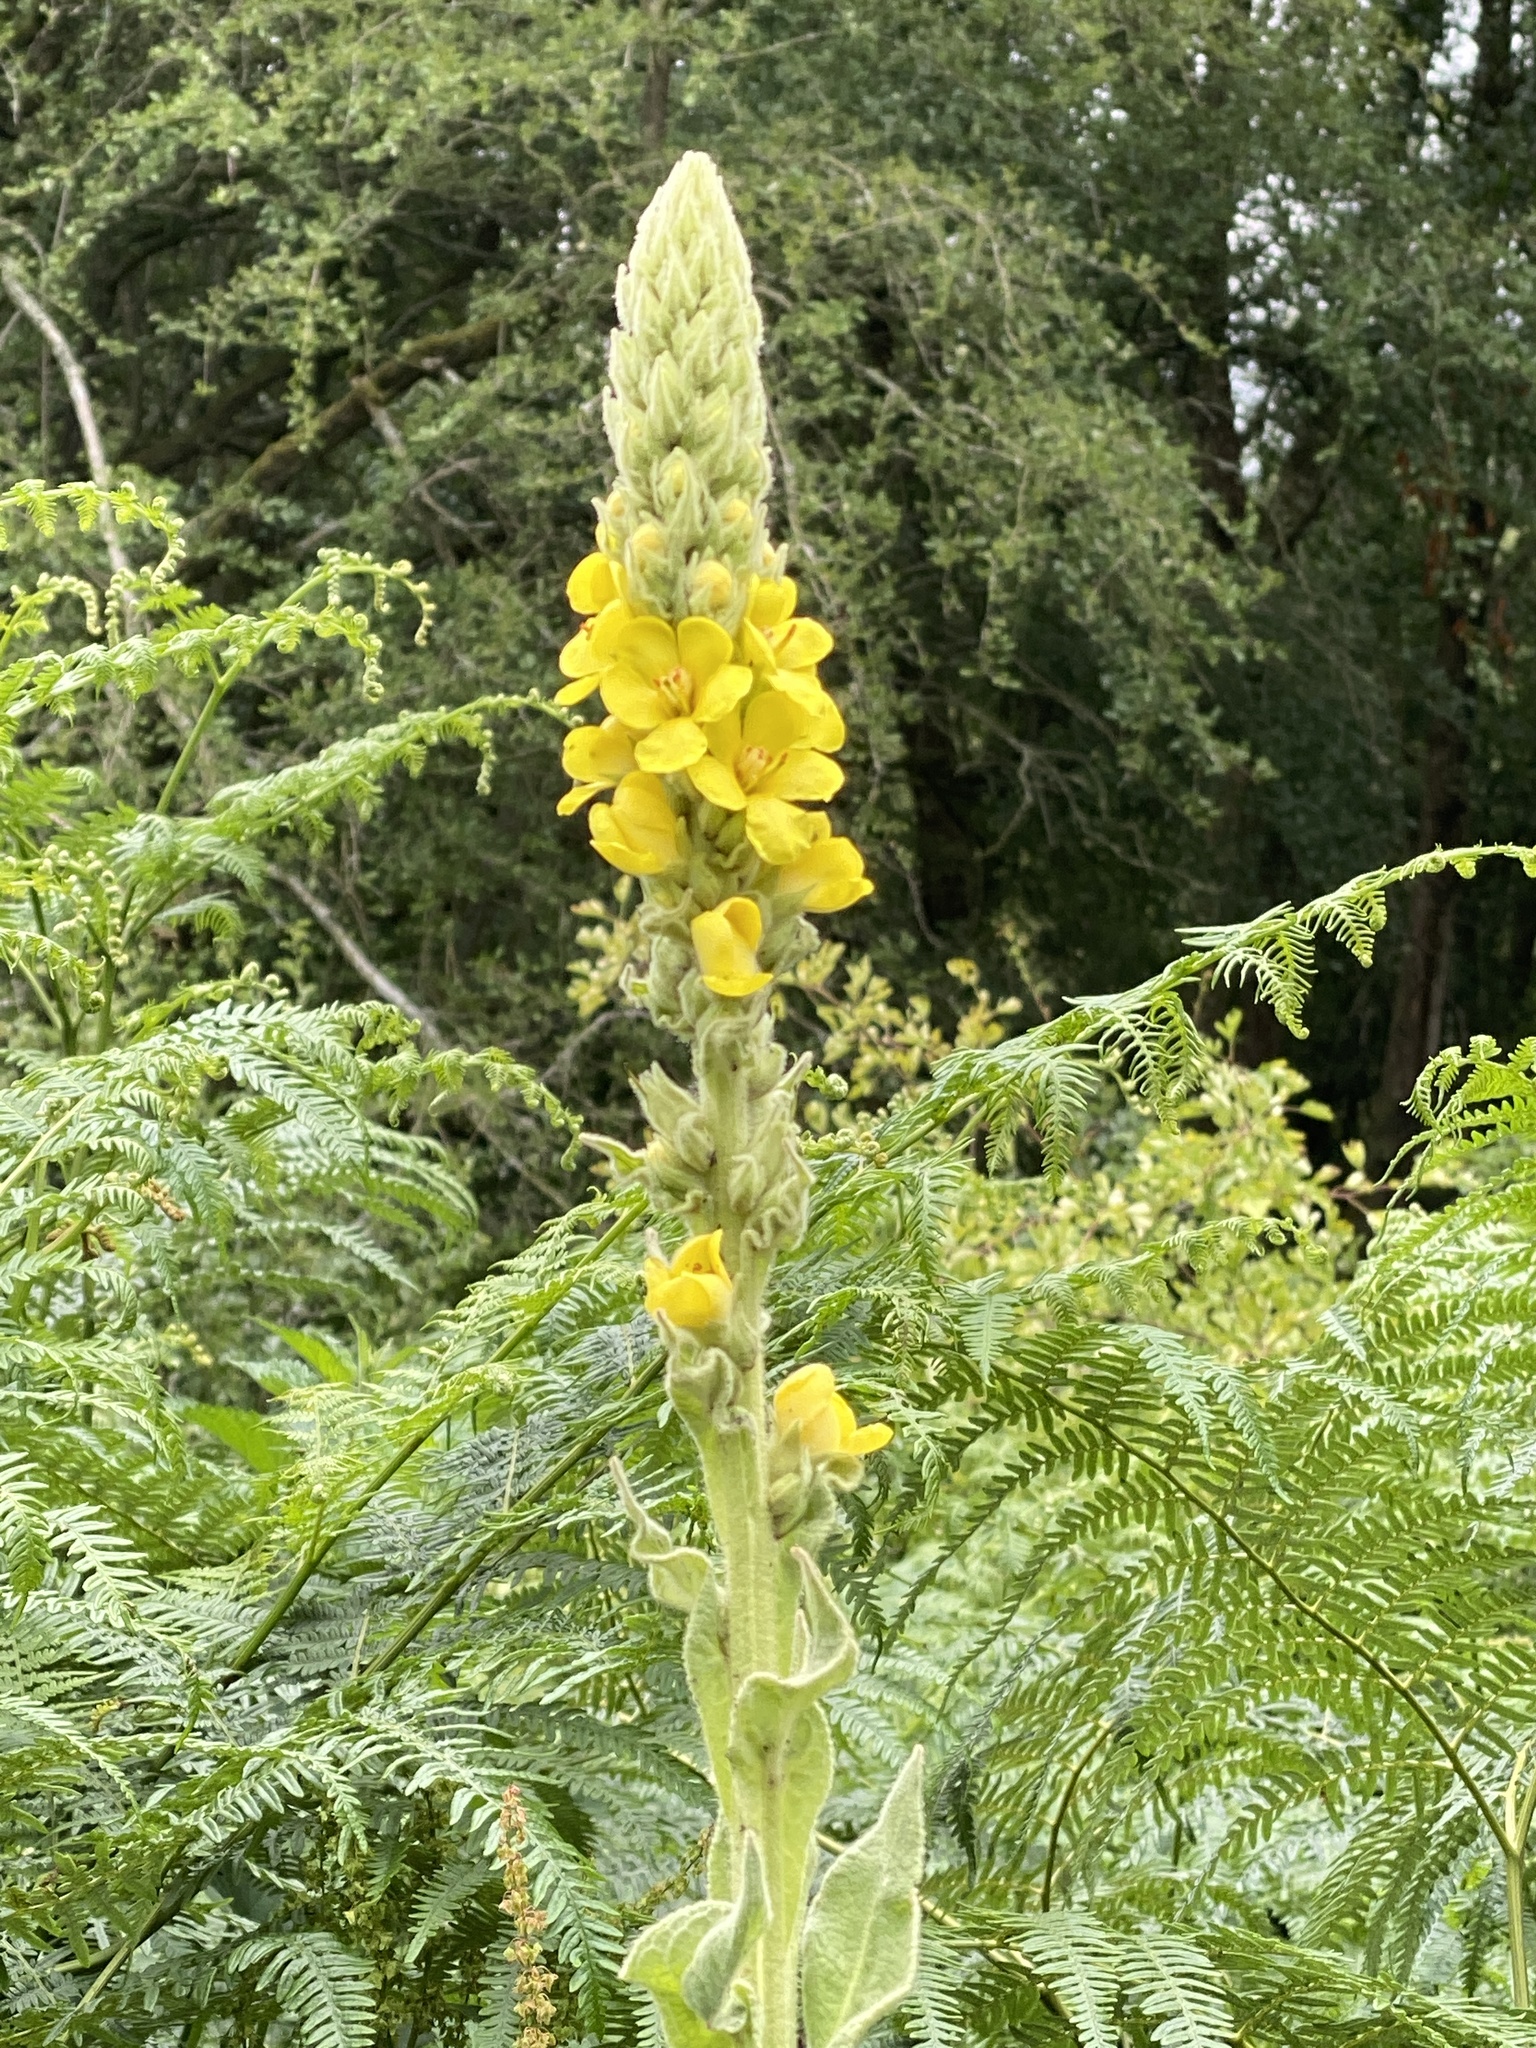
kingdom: Plantae
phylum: Tracheophyta
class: Magnoliopsida
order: Lamiales
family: Scrophulariaceae
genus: Verbascum
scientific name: Verbascum thapsus
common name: Common mullein
